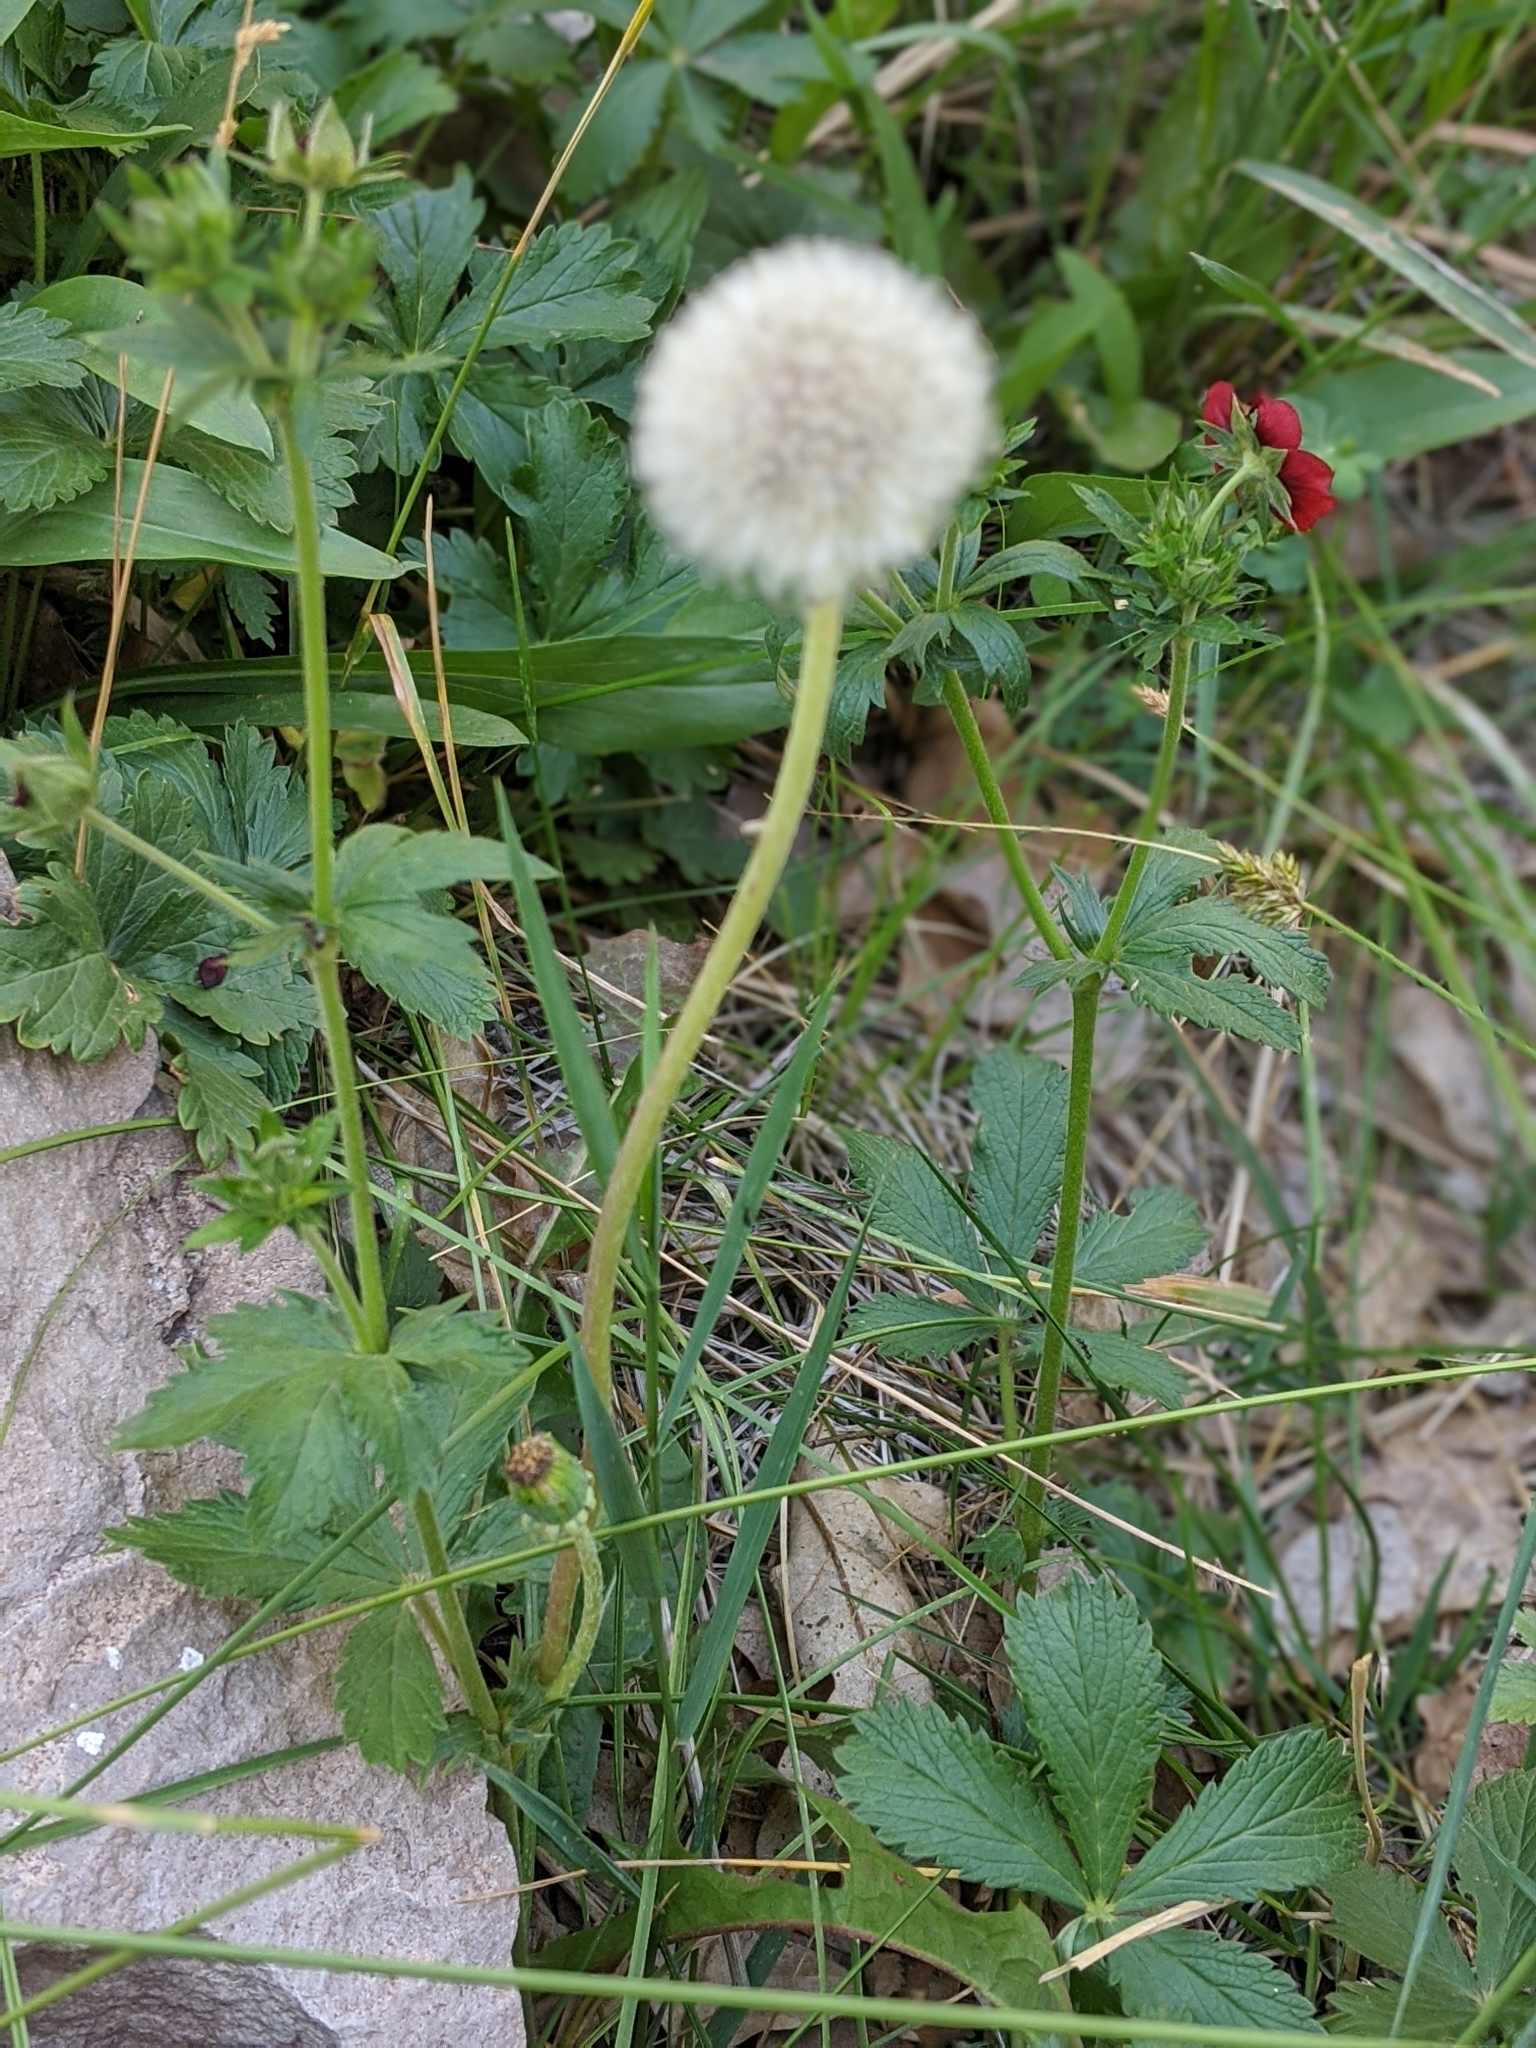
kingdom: Plantae
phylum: Tracheophyta
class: Magnoliopsida
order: Asterales
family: Asteraceae
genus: Taraxacum
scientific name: Taraxacum officinale
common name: Common dandelion
